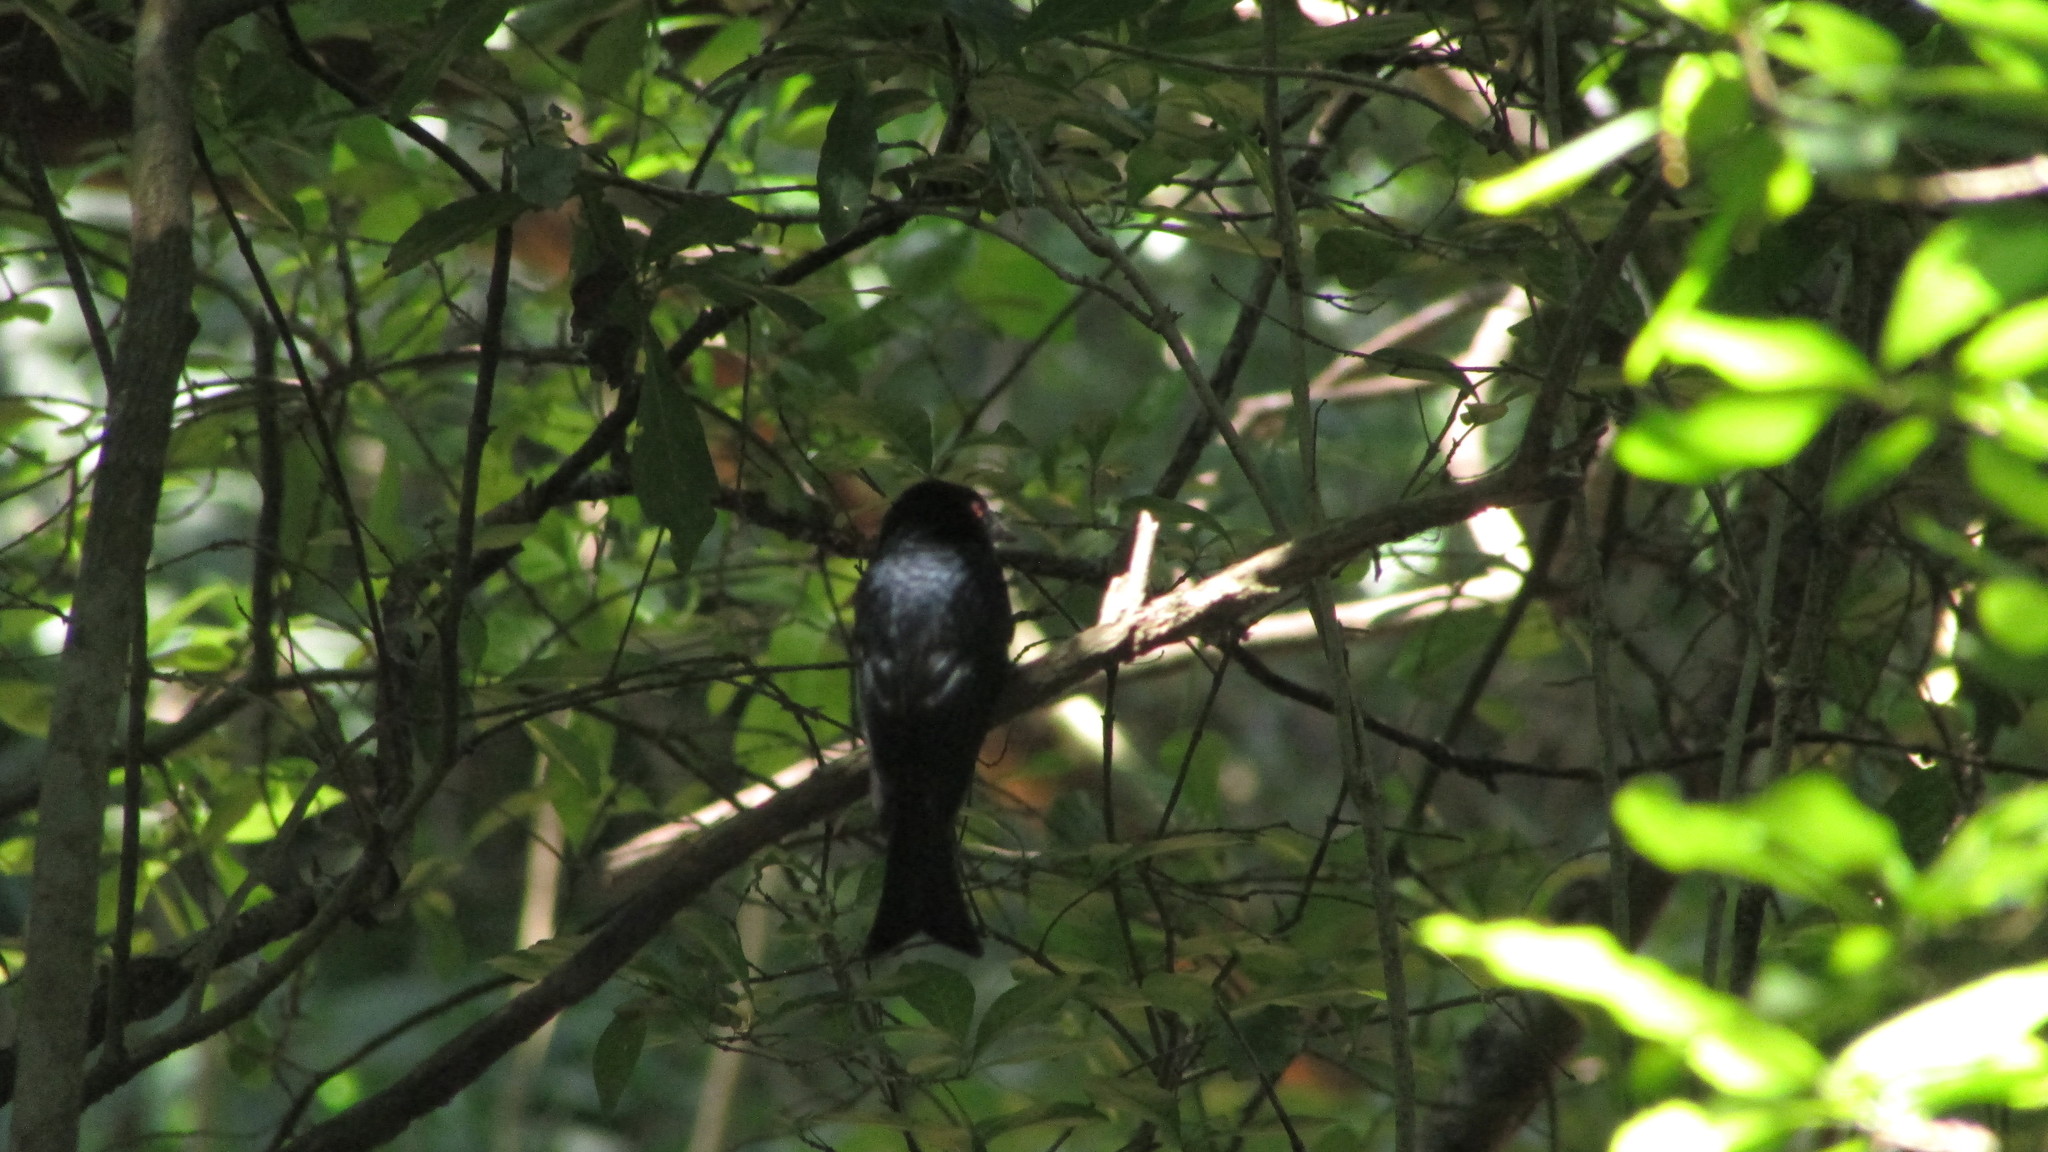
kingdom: Animalia
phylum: Chordata
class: Aves
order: Passeriformes
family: Dicruridae
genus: Dicrurus
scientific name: Dicrurus ludwigii
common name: Square-tailed drongo
